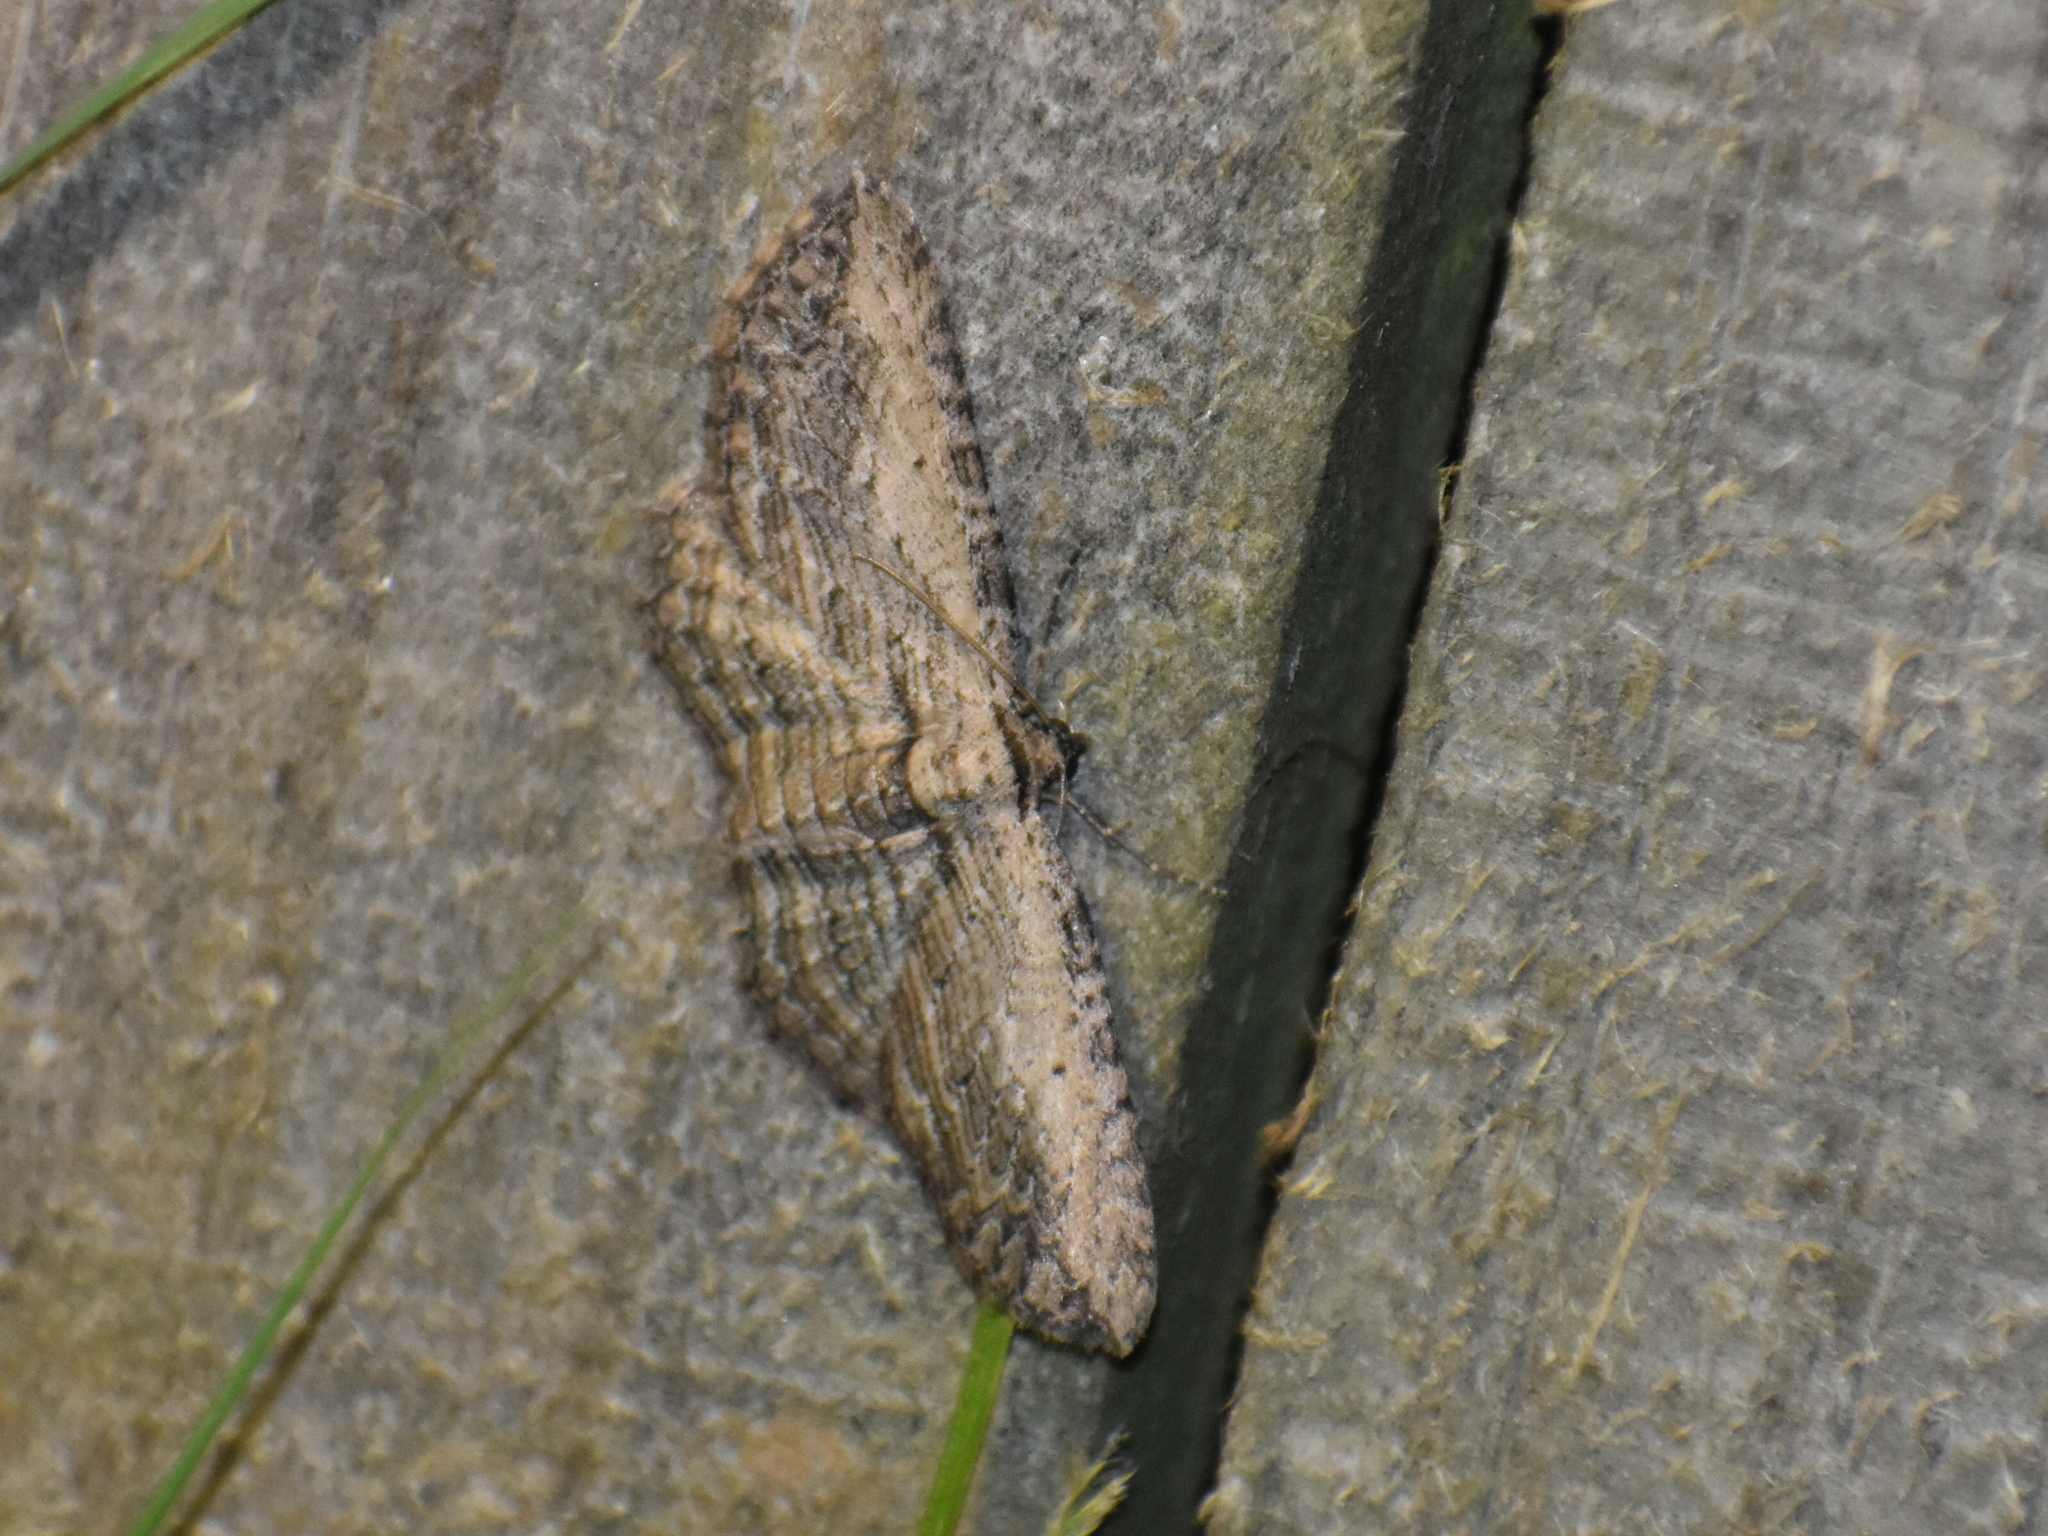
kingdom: Animalia
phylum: Arthropoda
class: Insecta
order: Lepidoptera
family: Geometridae
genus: Horisme
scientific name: Horisme intestinata
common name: Brown bark carpet
